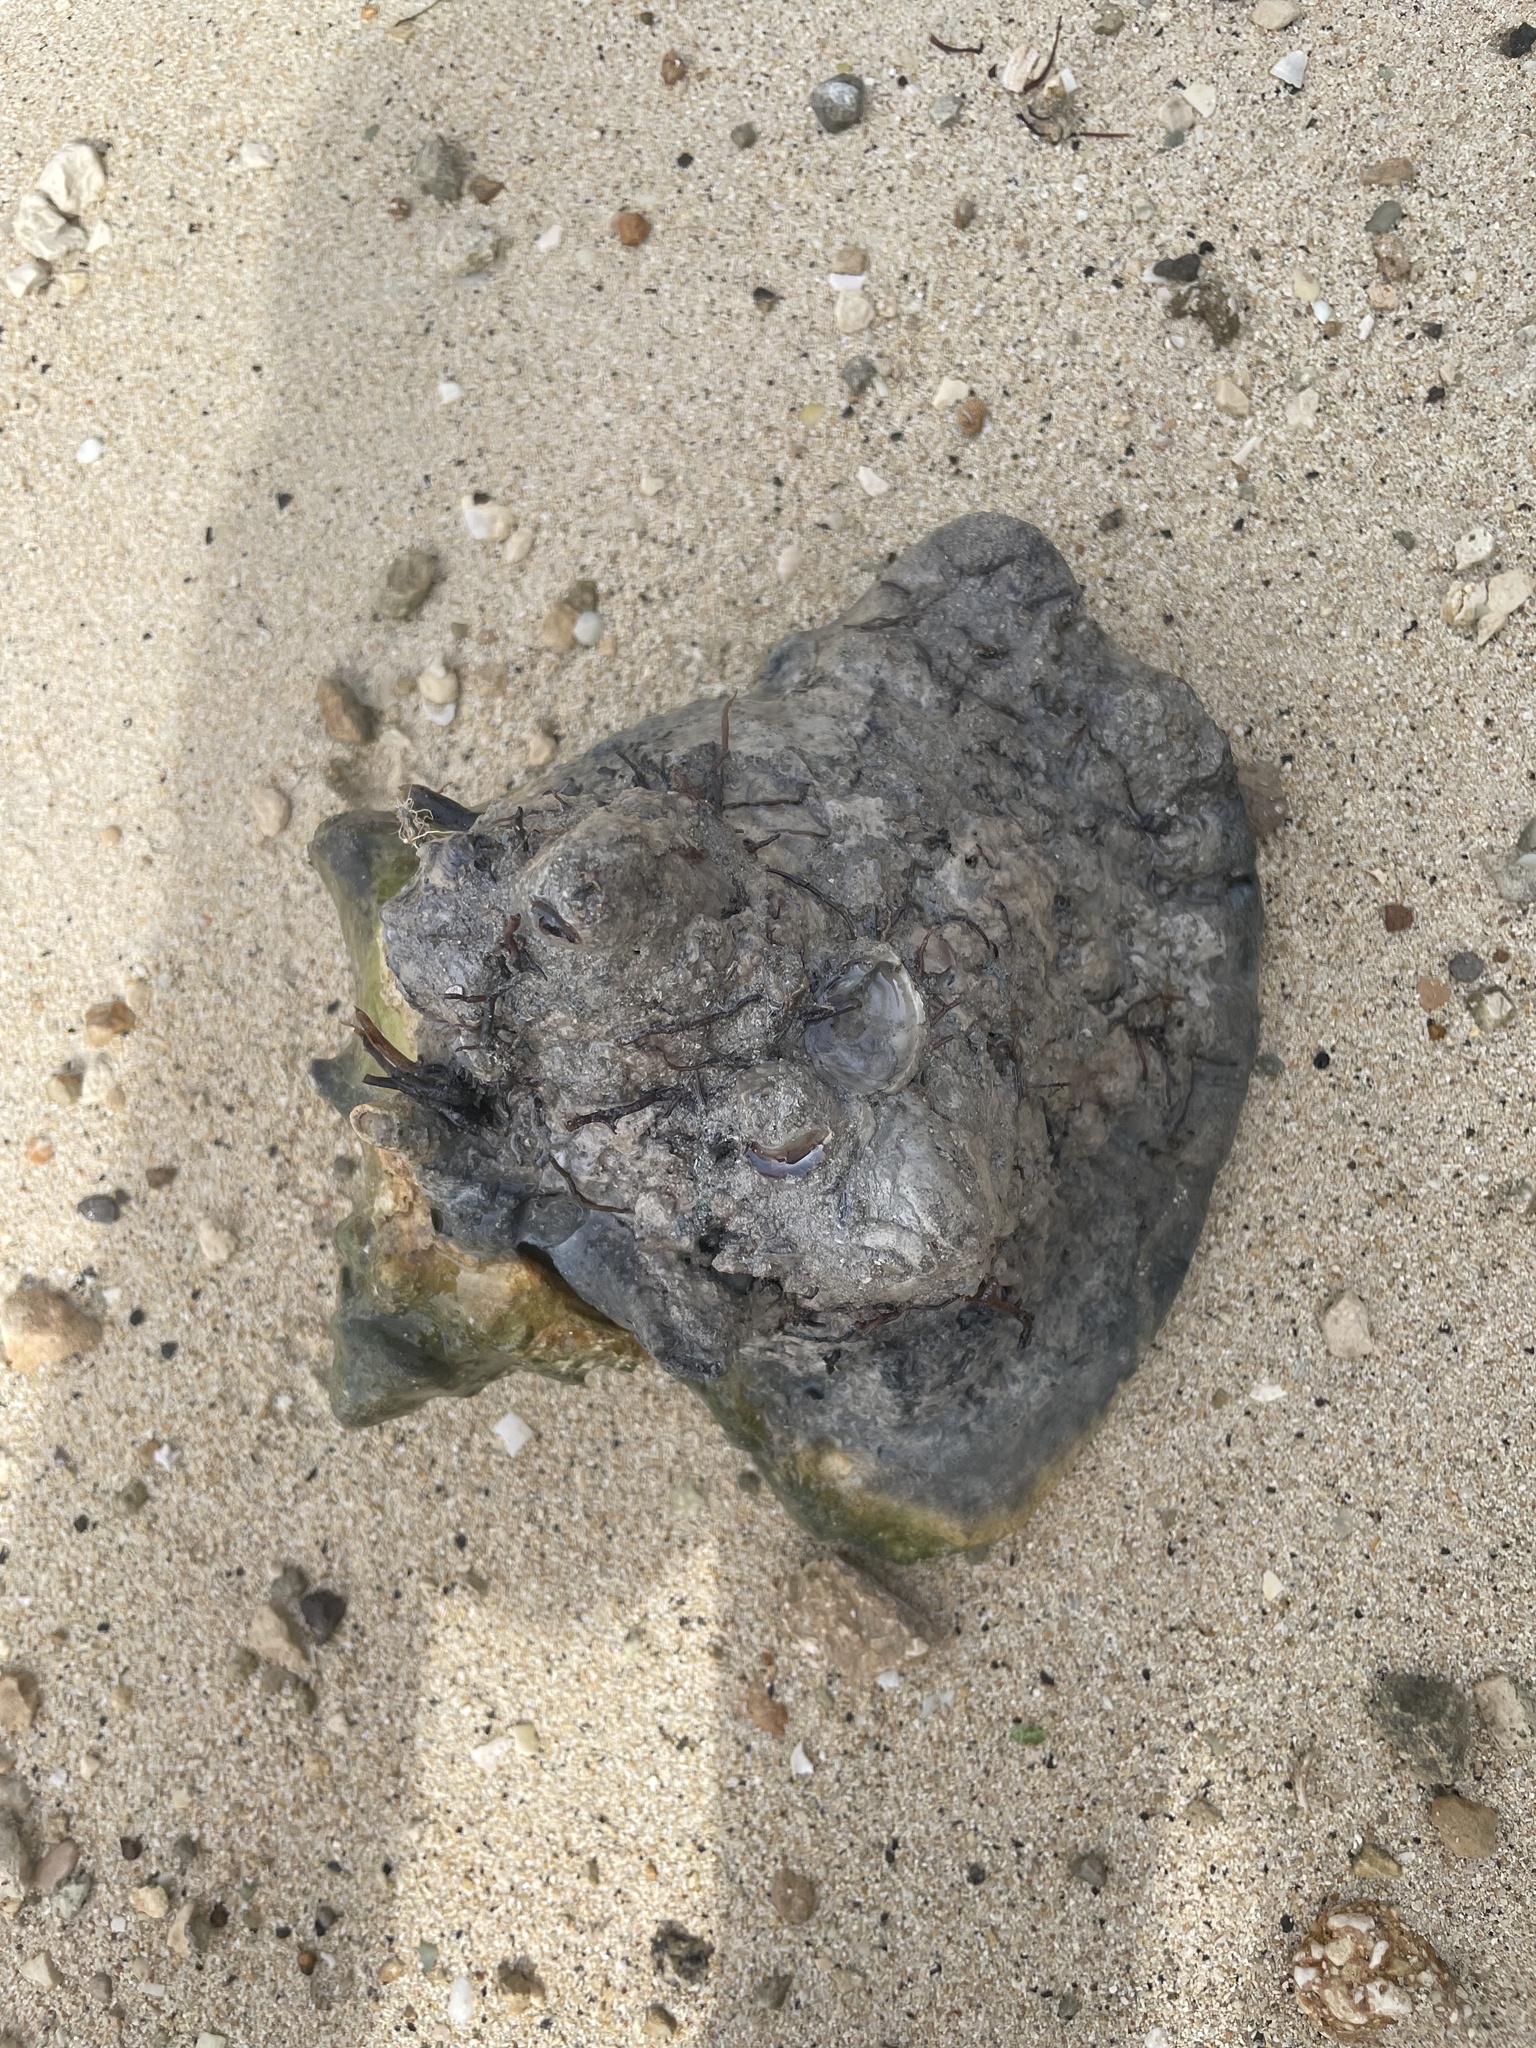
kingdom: Animalia
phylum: Mollusca
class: Gastropoda
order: Littorinimorpha
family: Strombidae
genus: Macrostrombus
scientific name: Macrostrombus costatus
